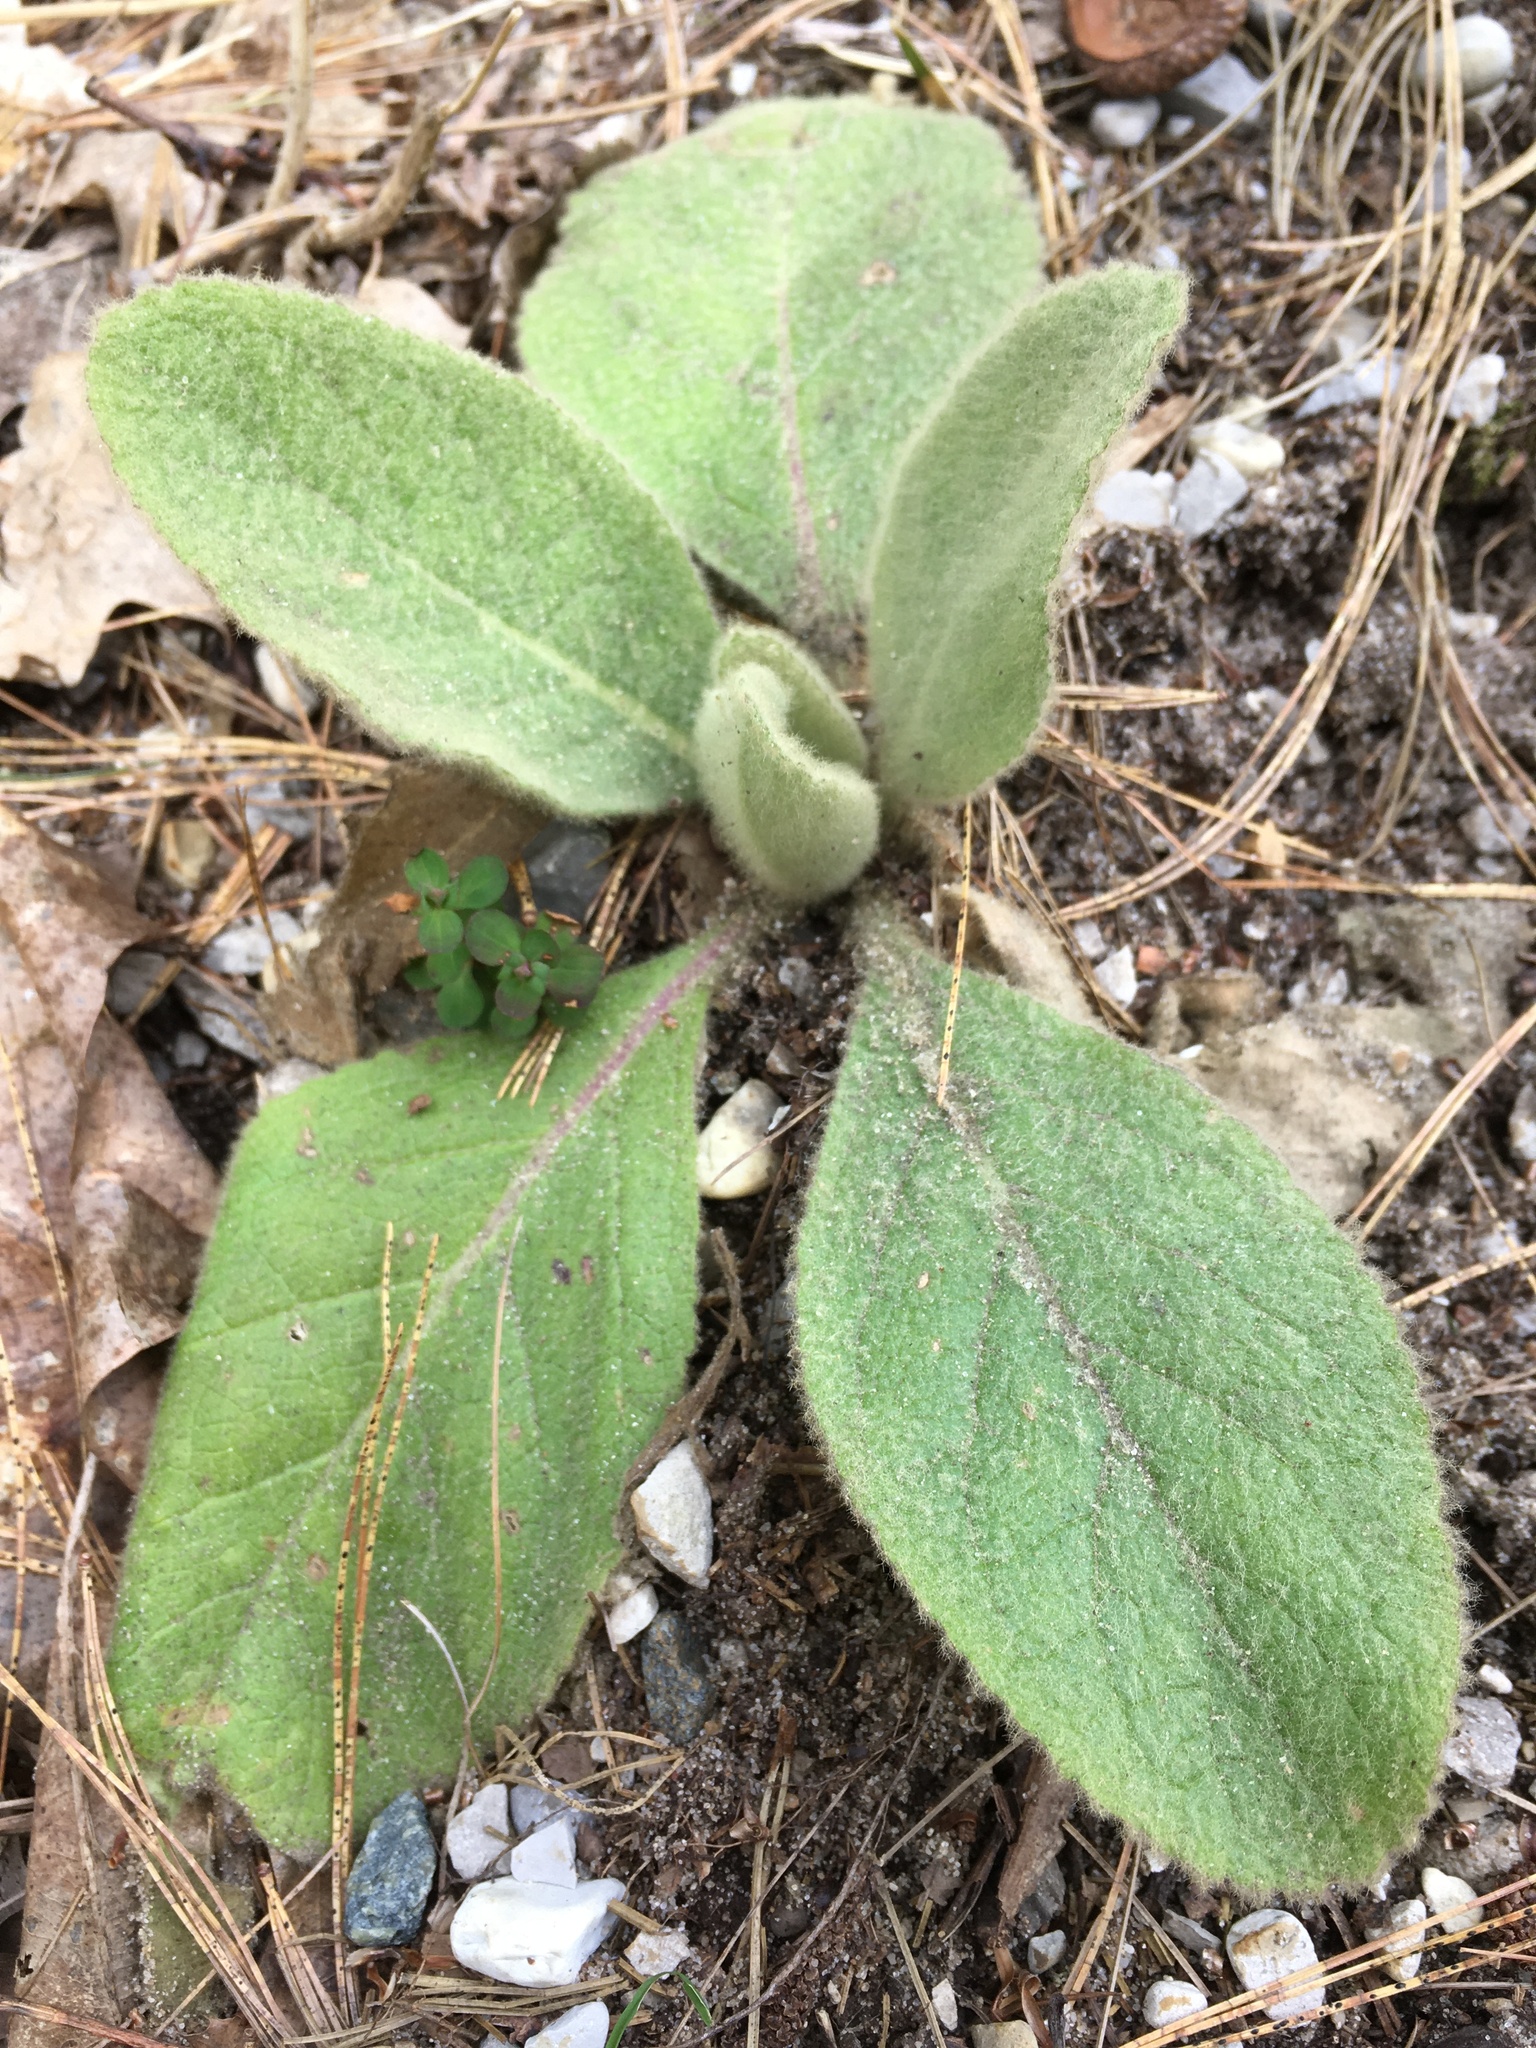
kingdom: Plantae
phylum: Tracheophyta
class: Magnoliopsida
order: Lamiales
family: Scrophulariaceae
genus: Verbascum
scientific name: Verbascum thapsus
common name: Common mullein
